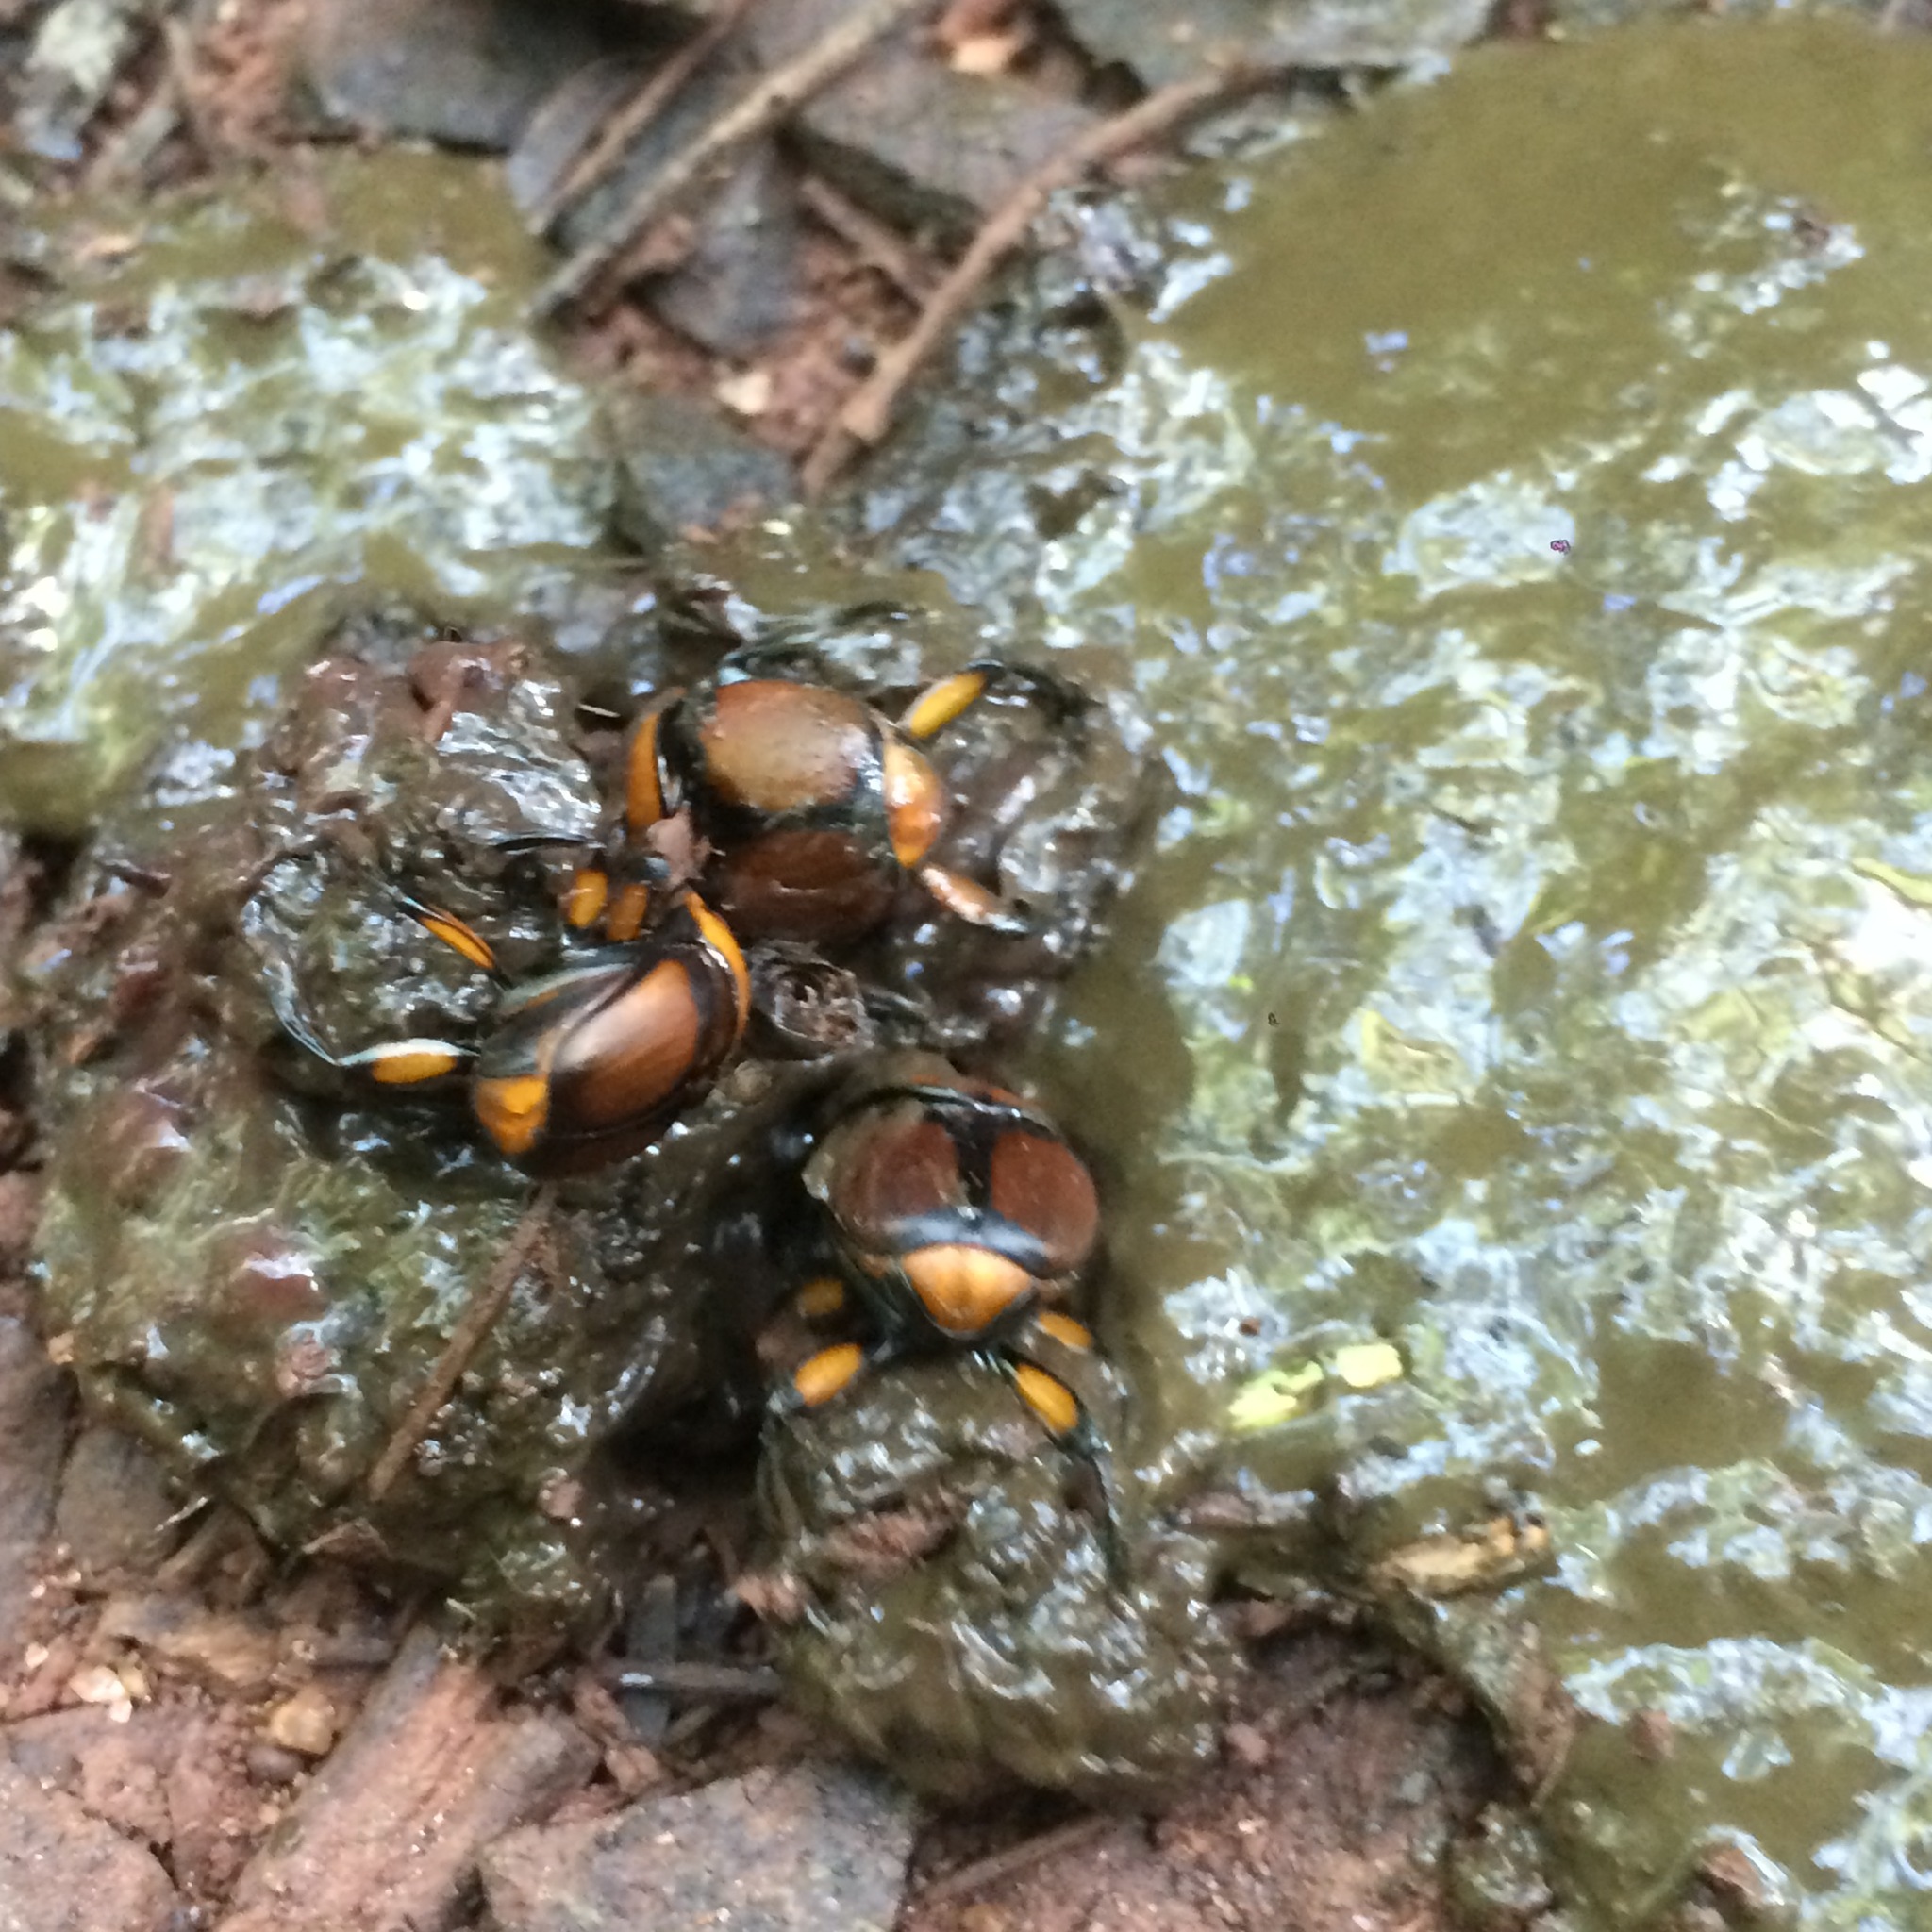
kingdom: Animalia
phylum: Arthropoda
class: Insecta
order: Coleoptera
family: Scarabaeidae
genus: Canthon
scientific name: Canthon quinquemaculatus
